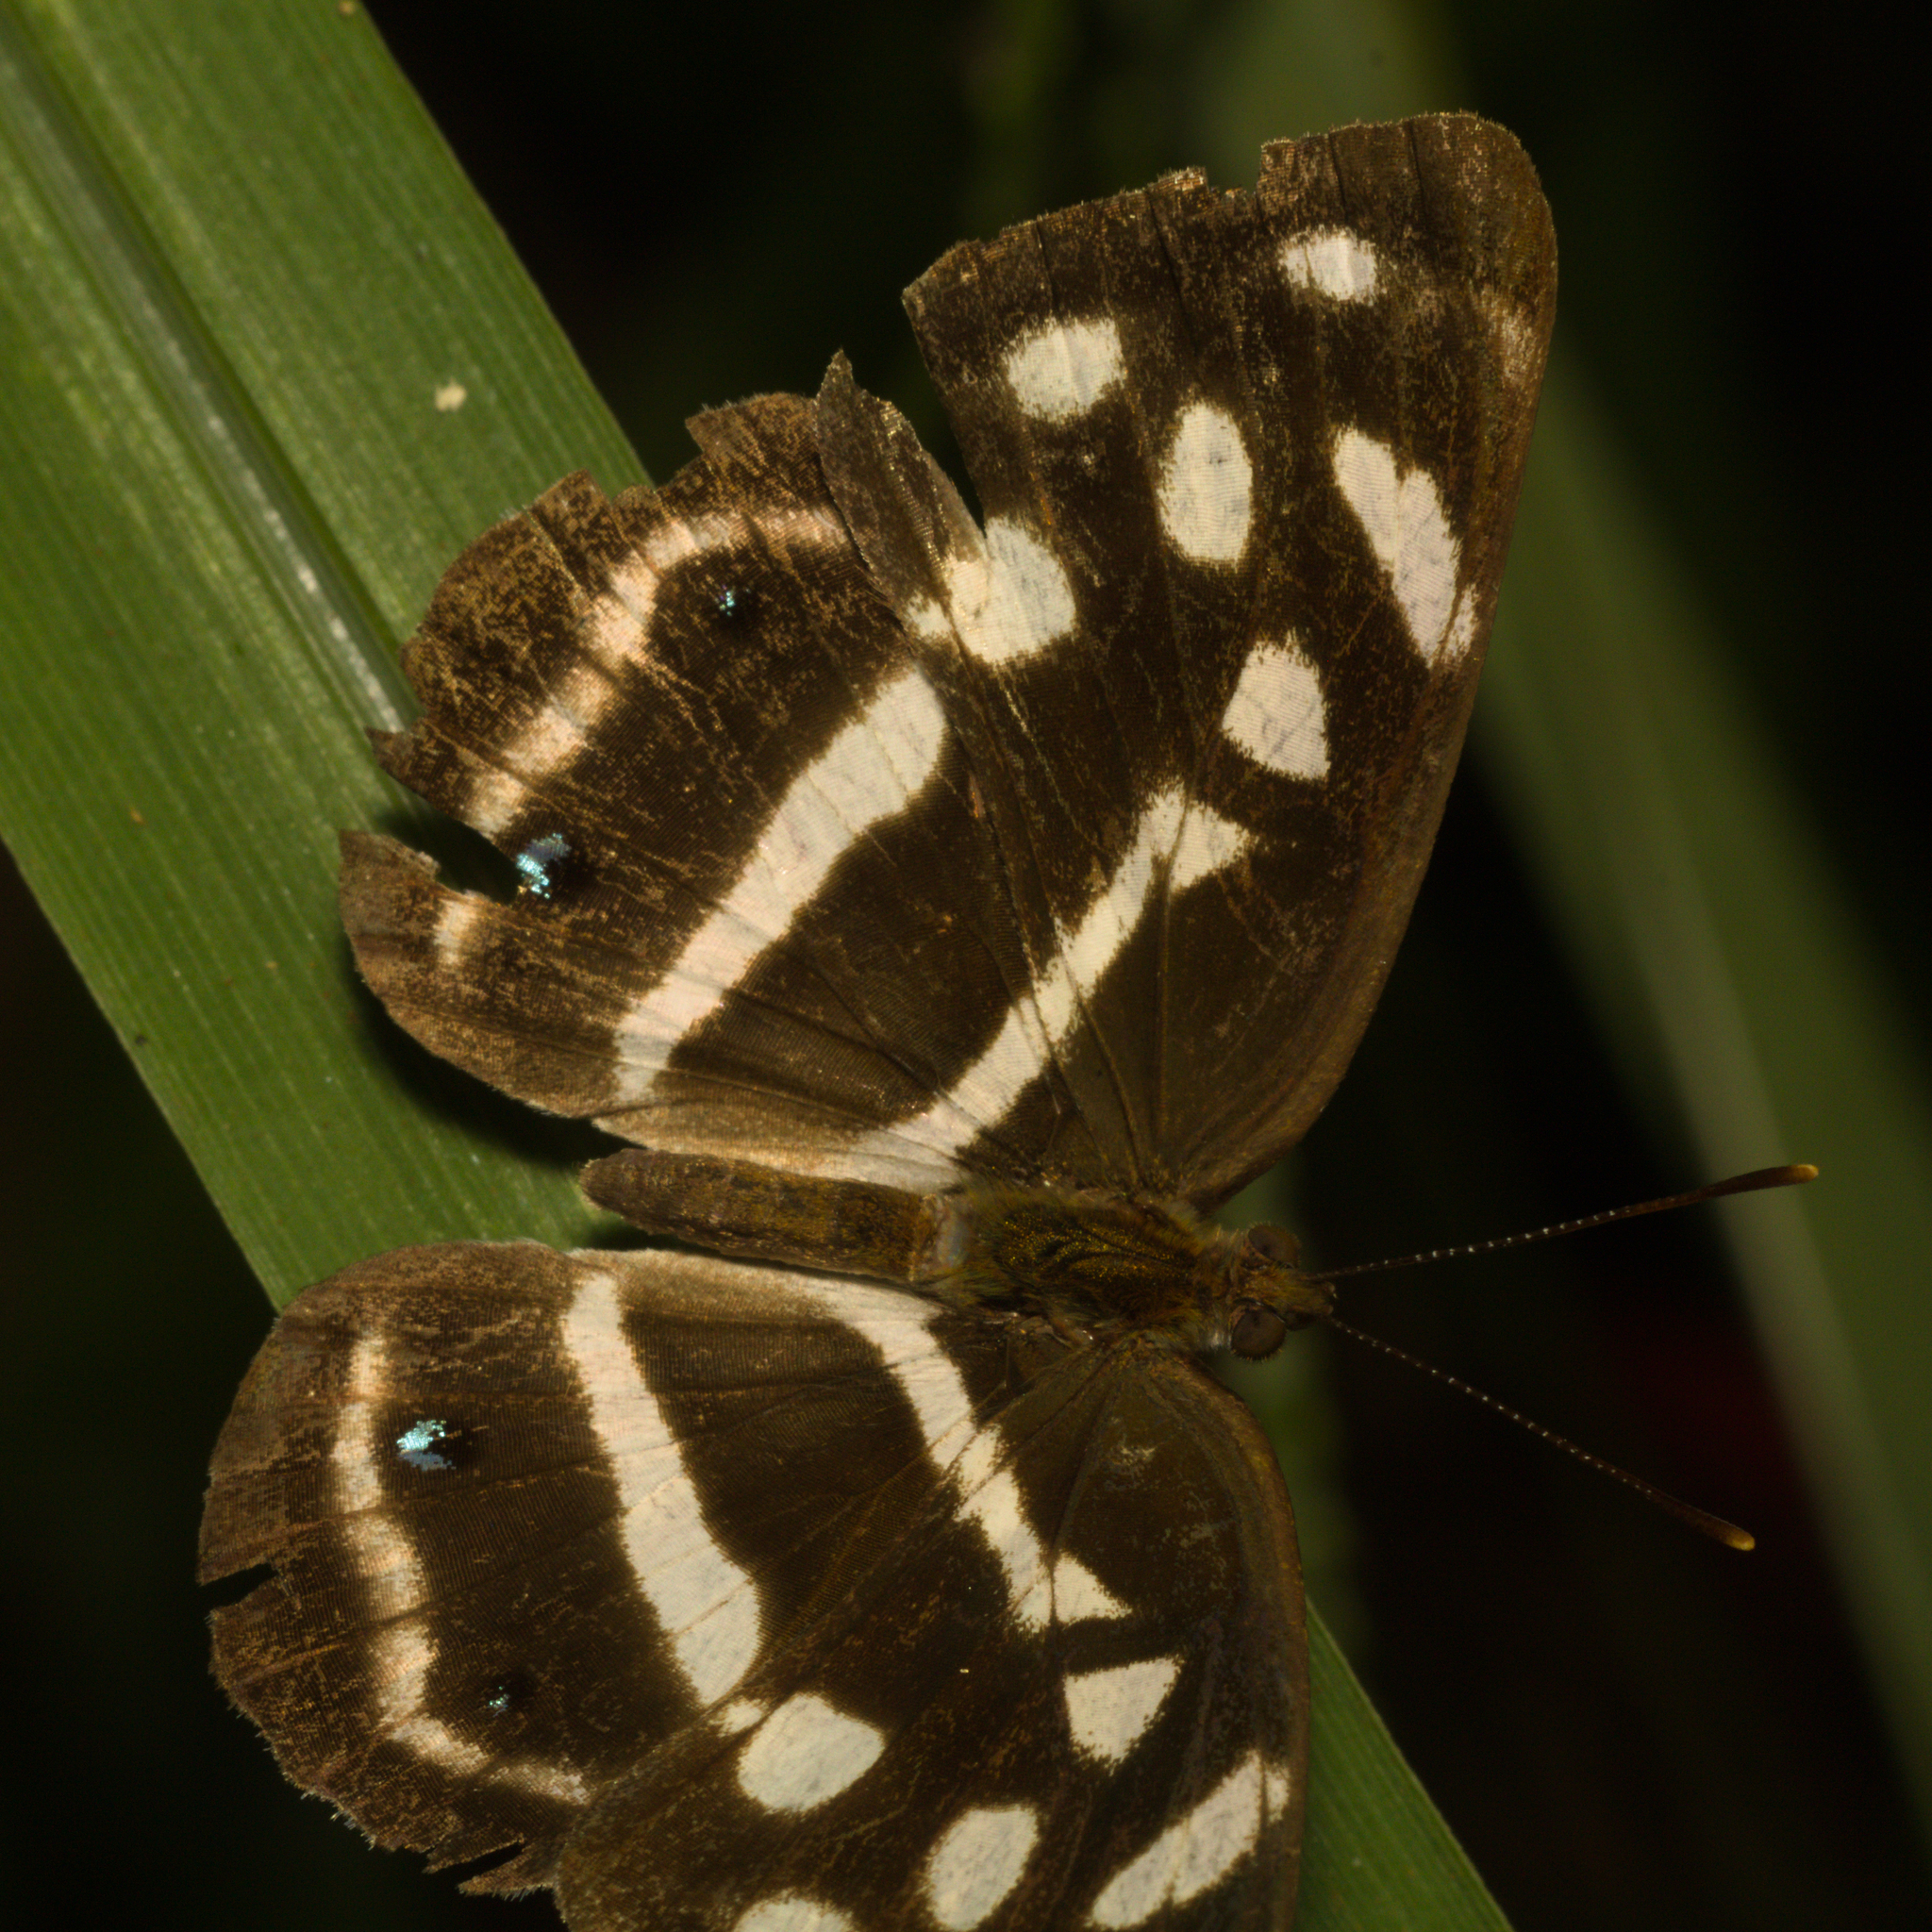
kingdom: Animalia
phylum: Arthropoda
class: Insecta
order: Lepidoptera
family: Nymphalidae
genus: Dynamine
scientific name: Dynamine mylitta
